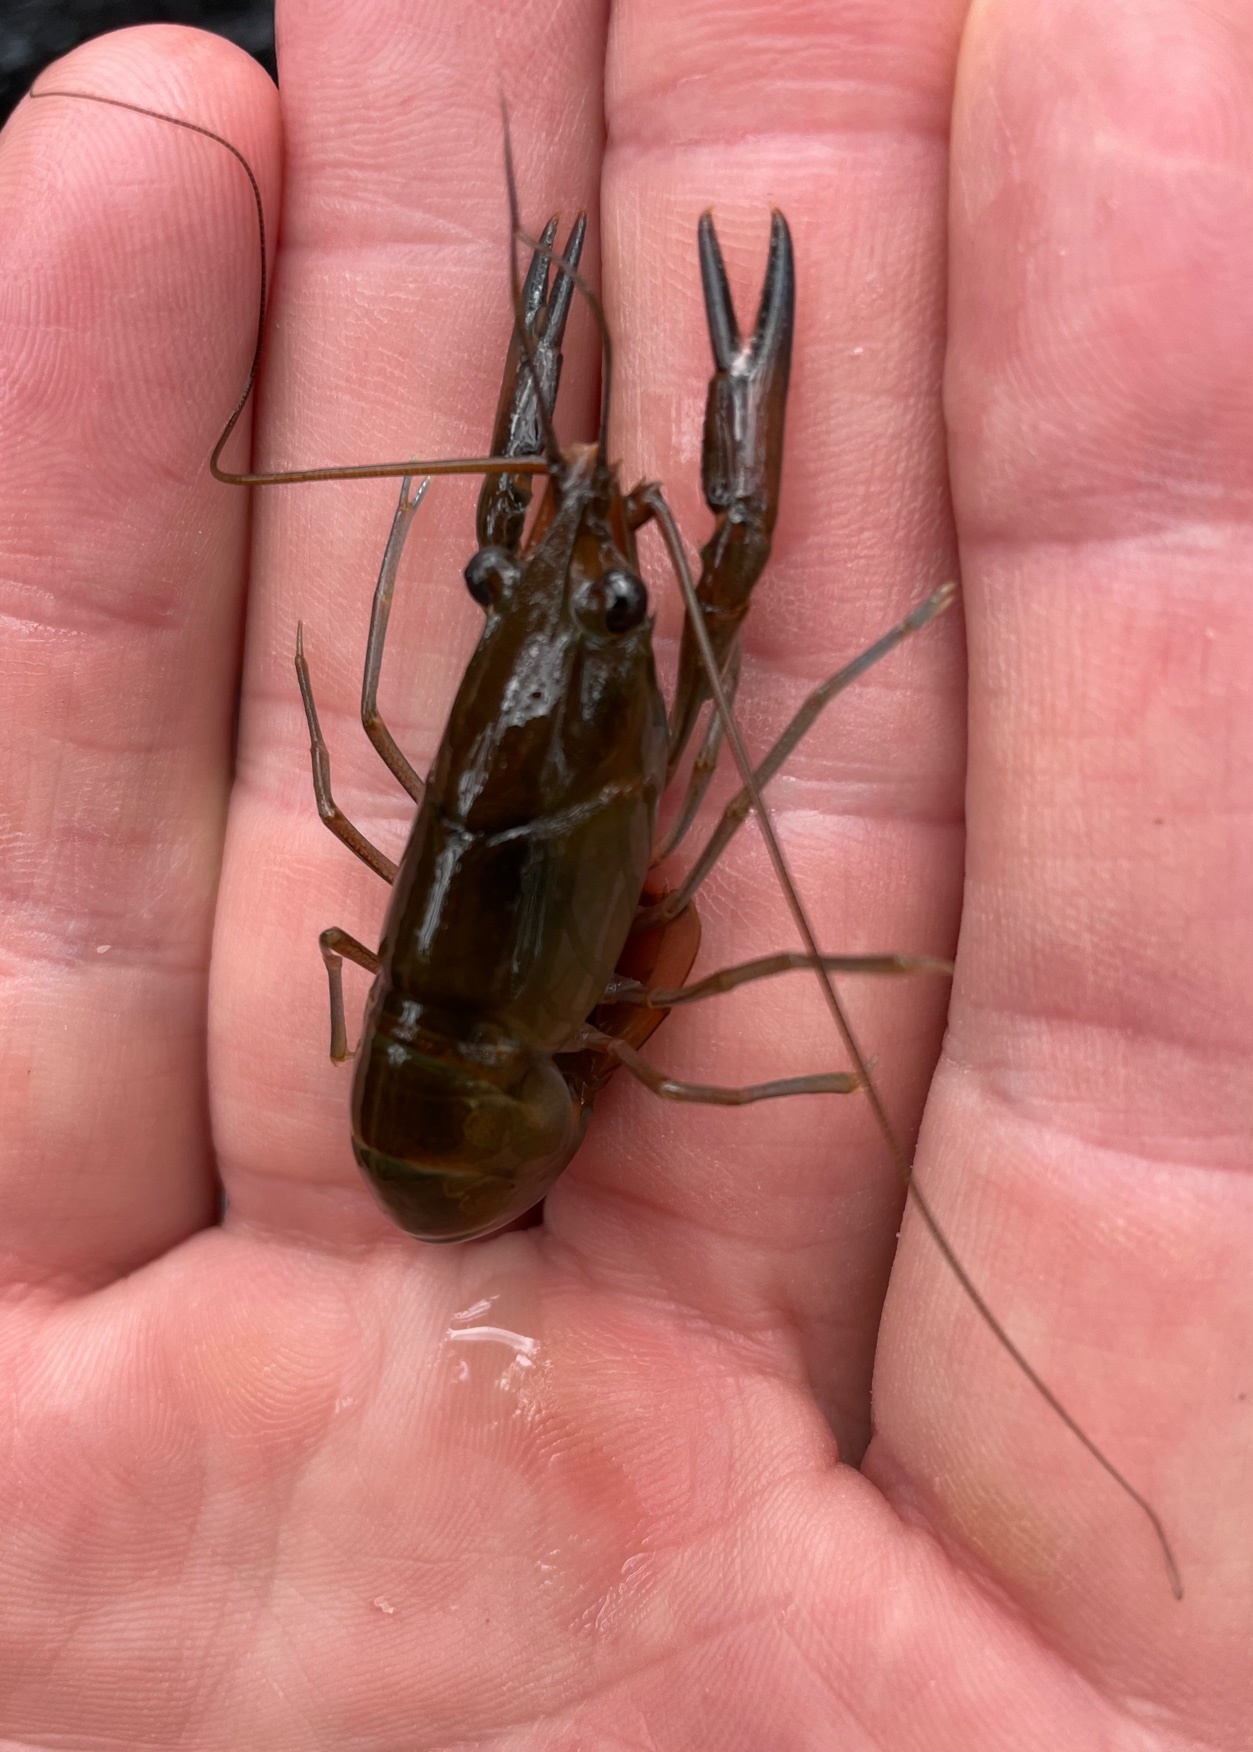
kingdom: Animalia
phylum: Arthropoda
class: Malacostraca
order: Decapoda
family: Parastacidae
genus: Cherax
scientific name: Cherax dispar
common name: Slender yabby
